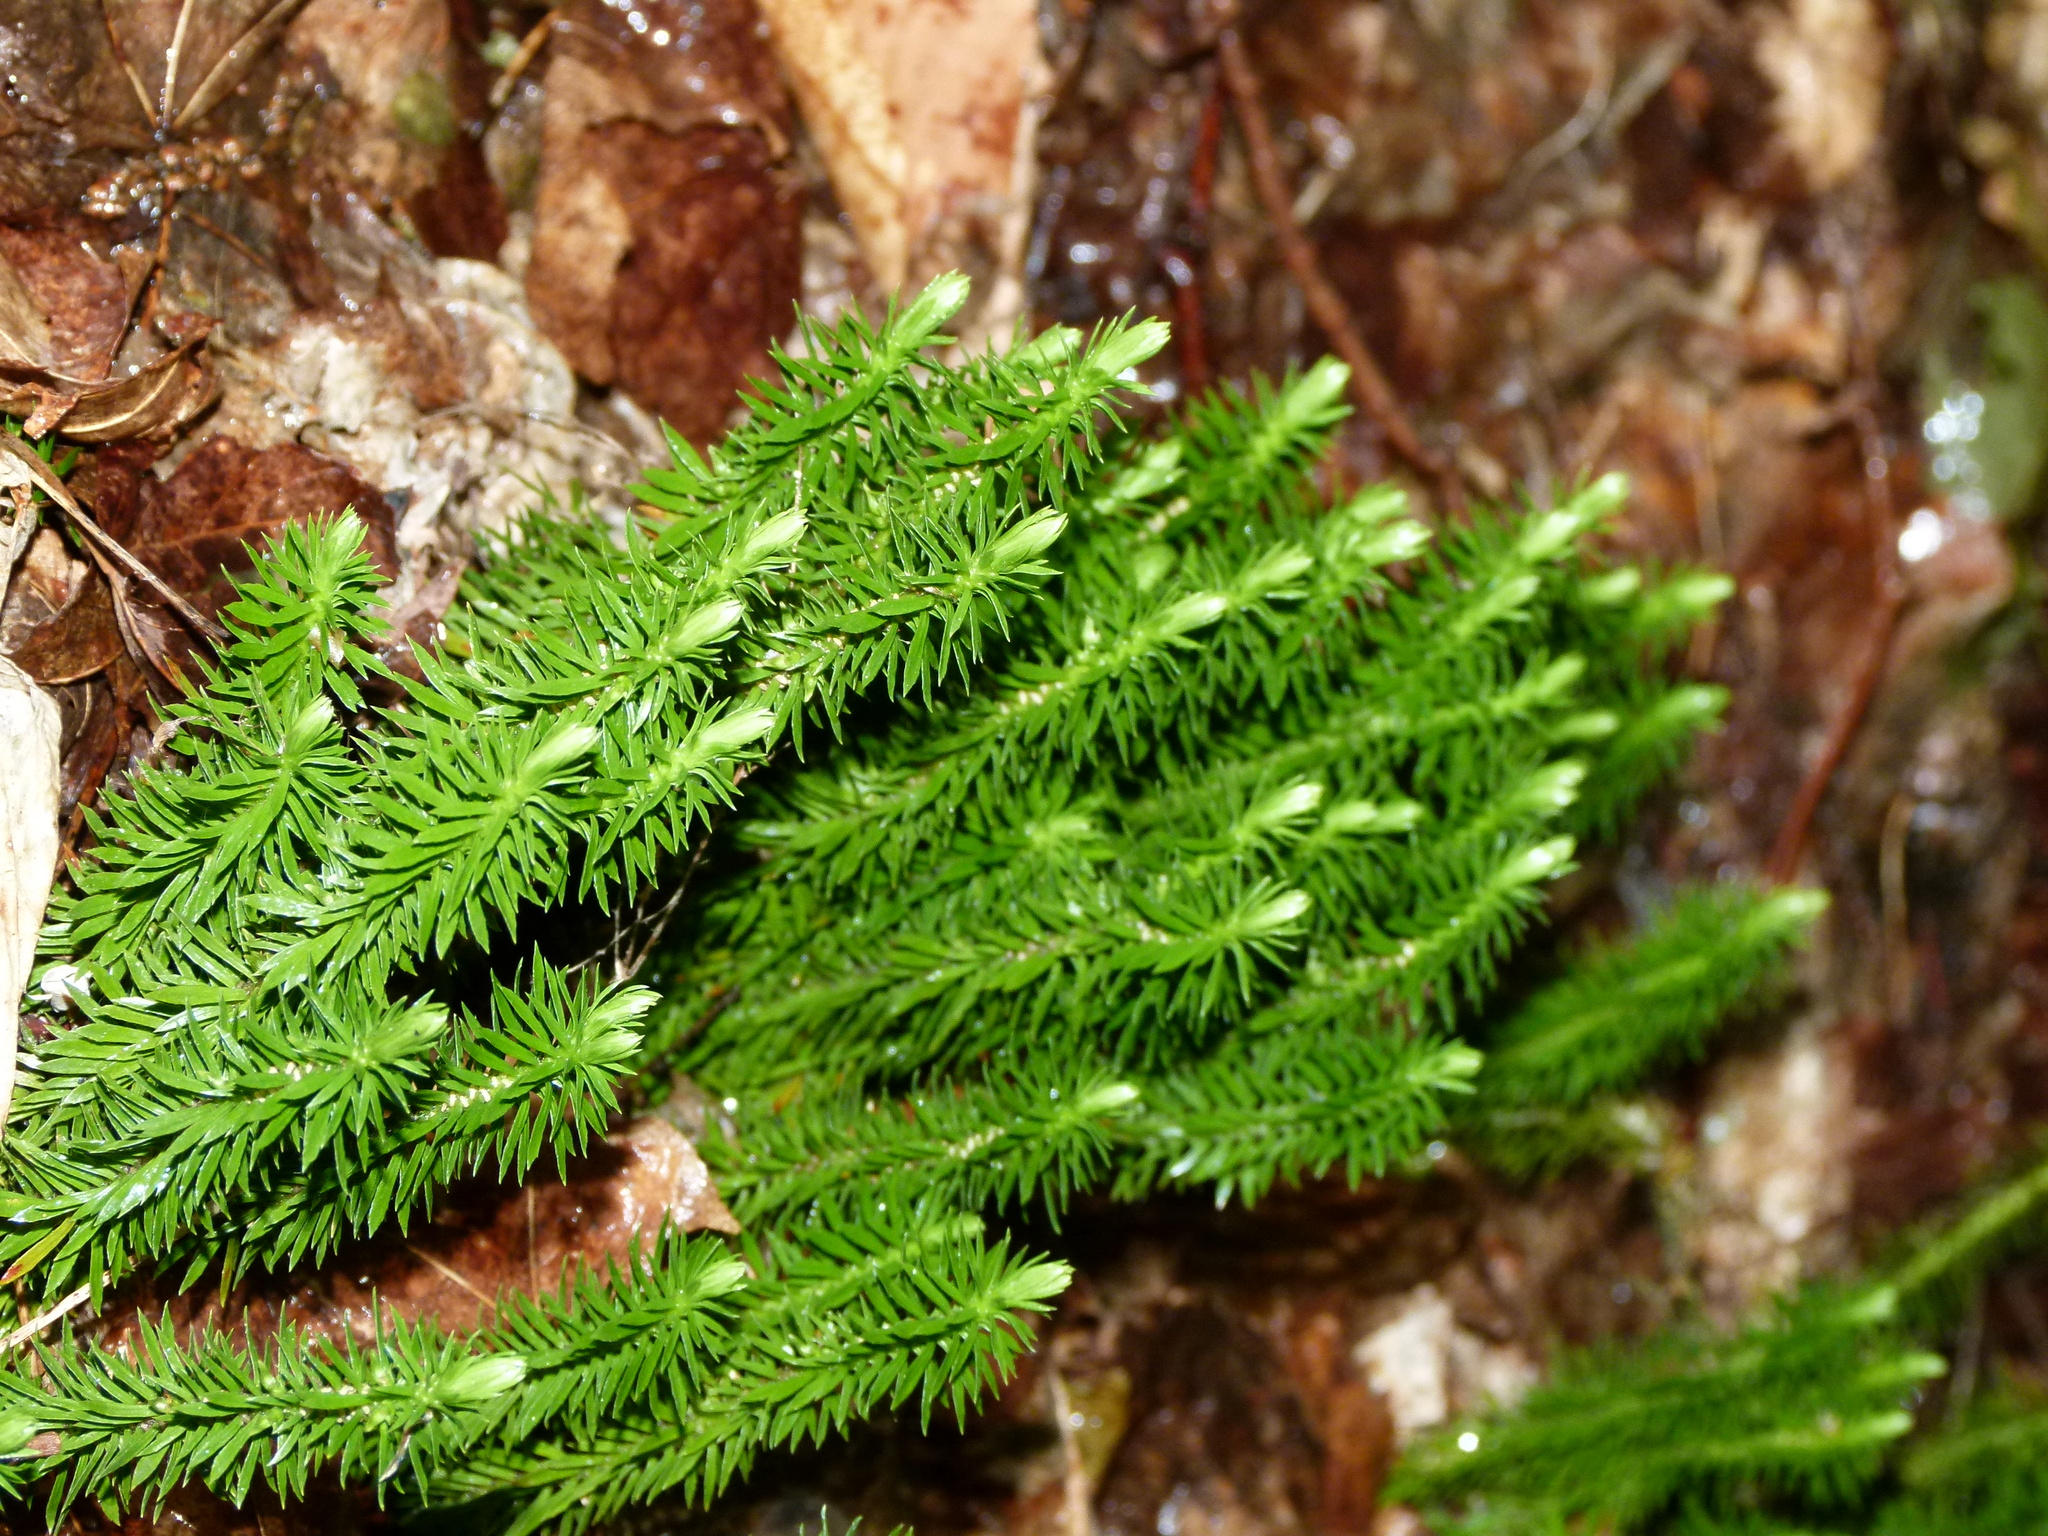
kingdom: Plantae
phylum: Tracheophyta
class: Lycopodiopsida
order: Lycopodiales
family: Lycopodiaceae
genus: Huperzia
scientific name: Huperzia lucidula
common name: Shining clubmoss
